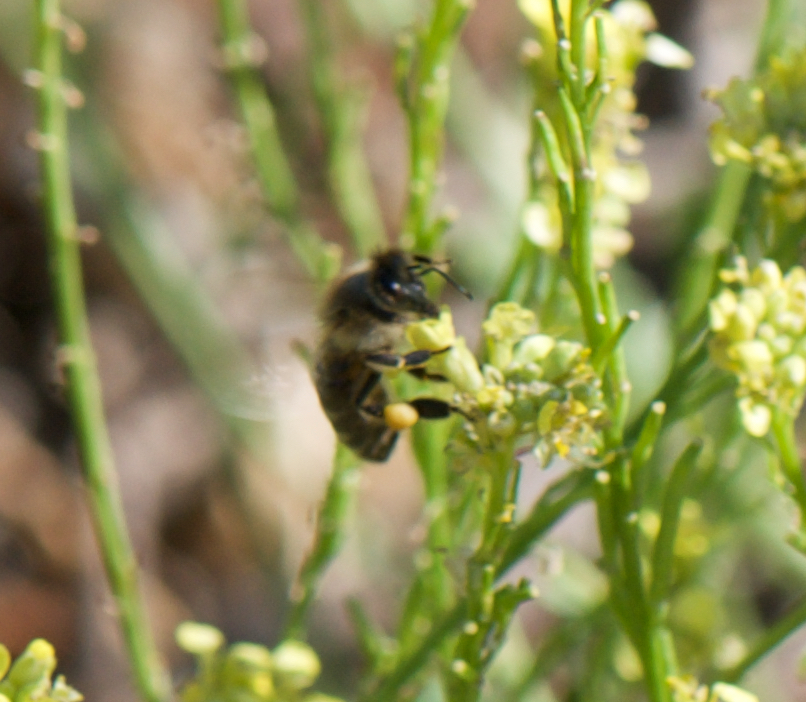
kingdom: Animalia
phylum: Arthropoda
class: Insecta
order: Hymenoptera
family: Apidae
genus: Apis
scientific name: Apis mellifera
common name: Honey bee
